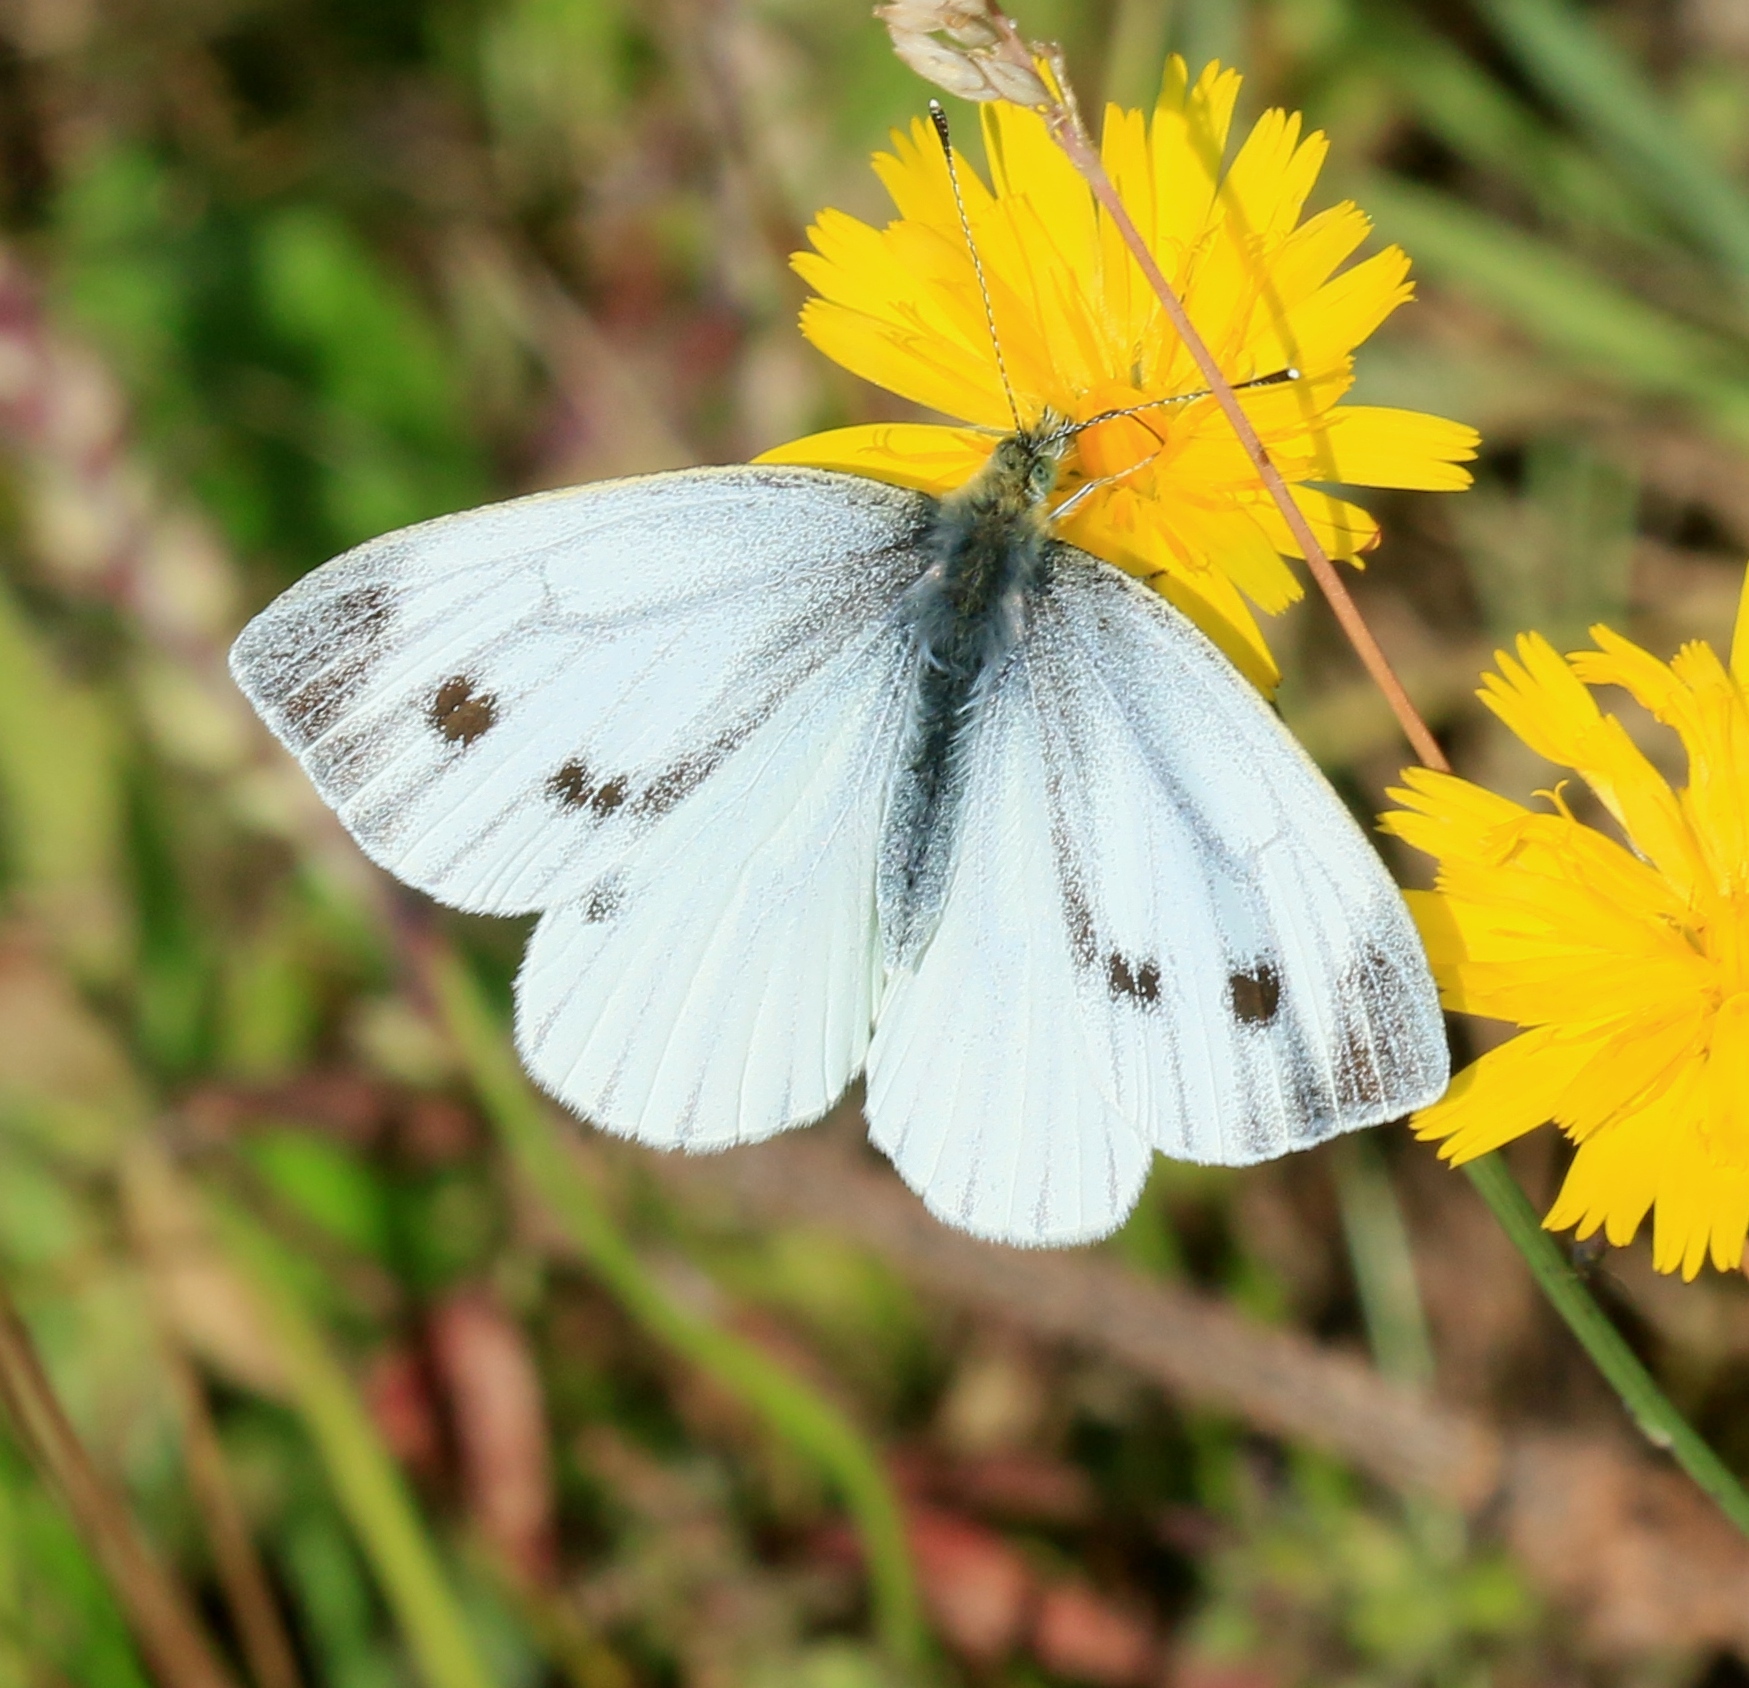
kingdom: Animalia
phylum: Arthropoda
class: Insecta
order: Lepidoptera
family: Pieridae
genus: Pieris
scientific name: Pieris napi
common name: Green-veined white
